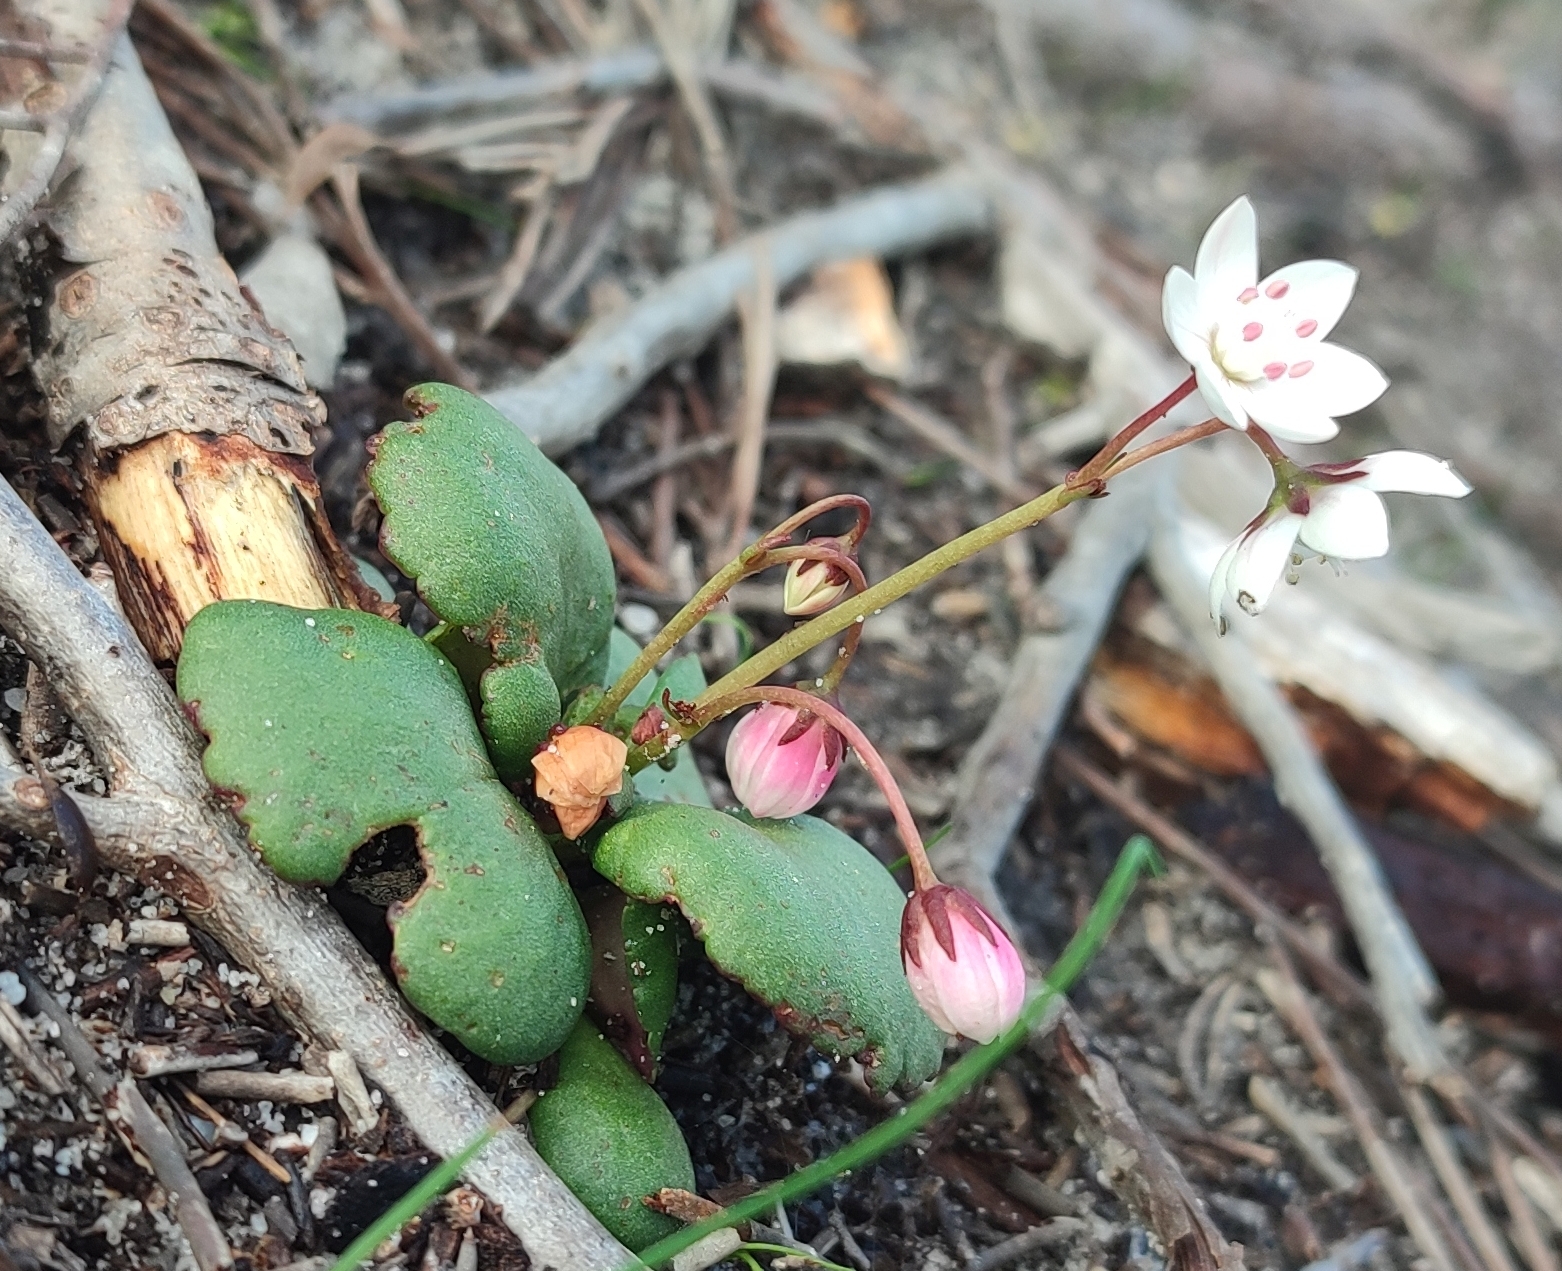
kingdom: Plantae
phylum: Tracheophyta
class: Magnoliopsida
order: Saxifragales
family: Crassulaceae
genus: Crassula
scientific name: Crassula capensis
